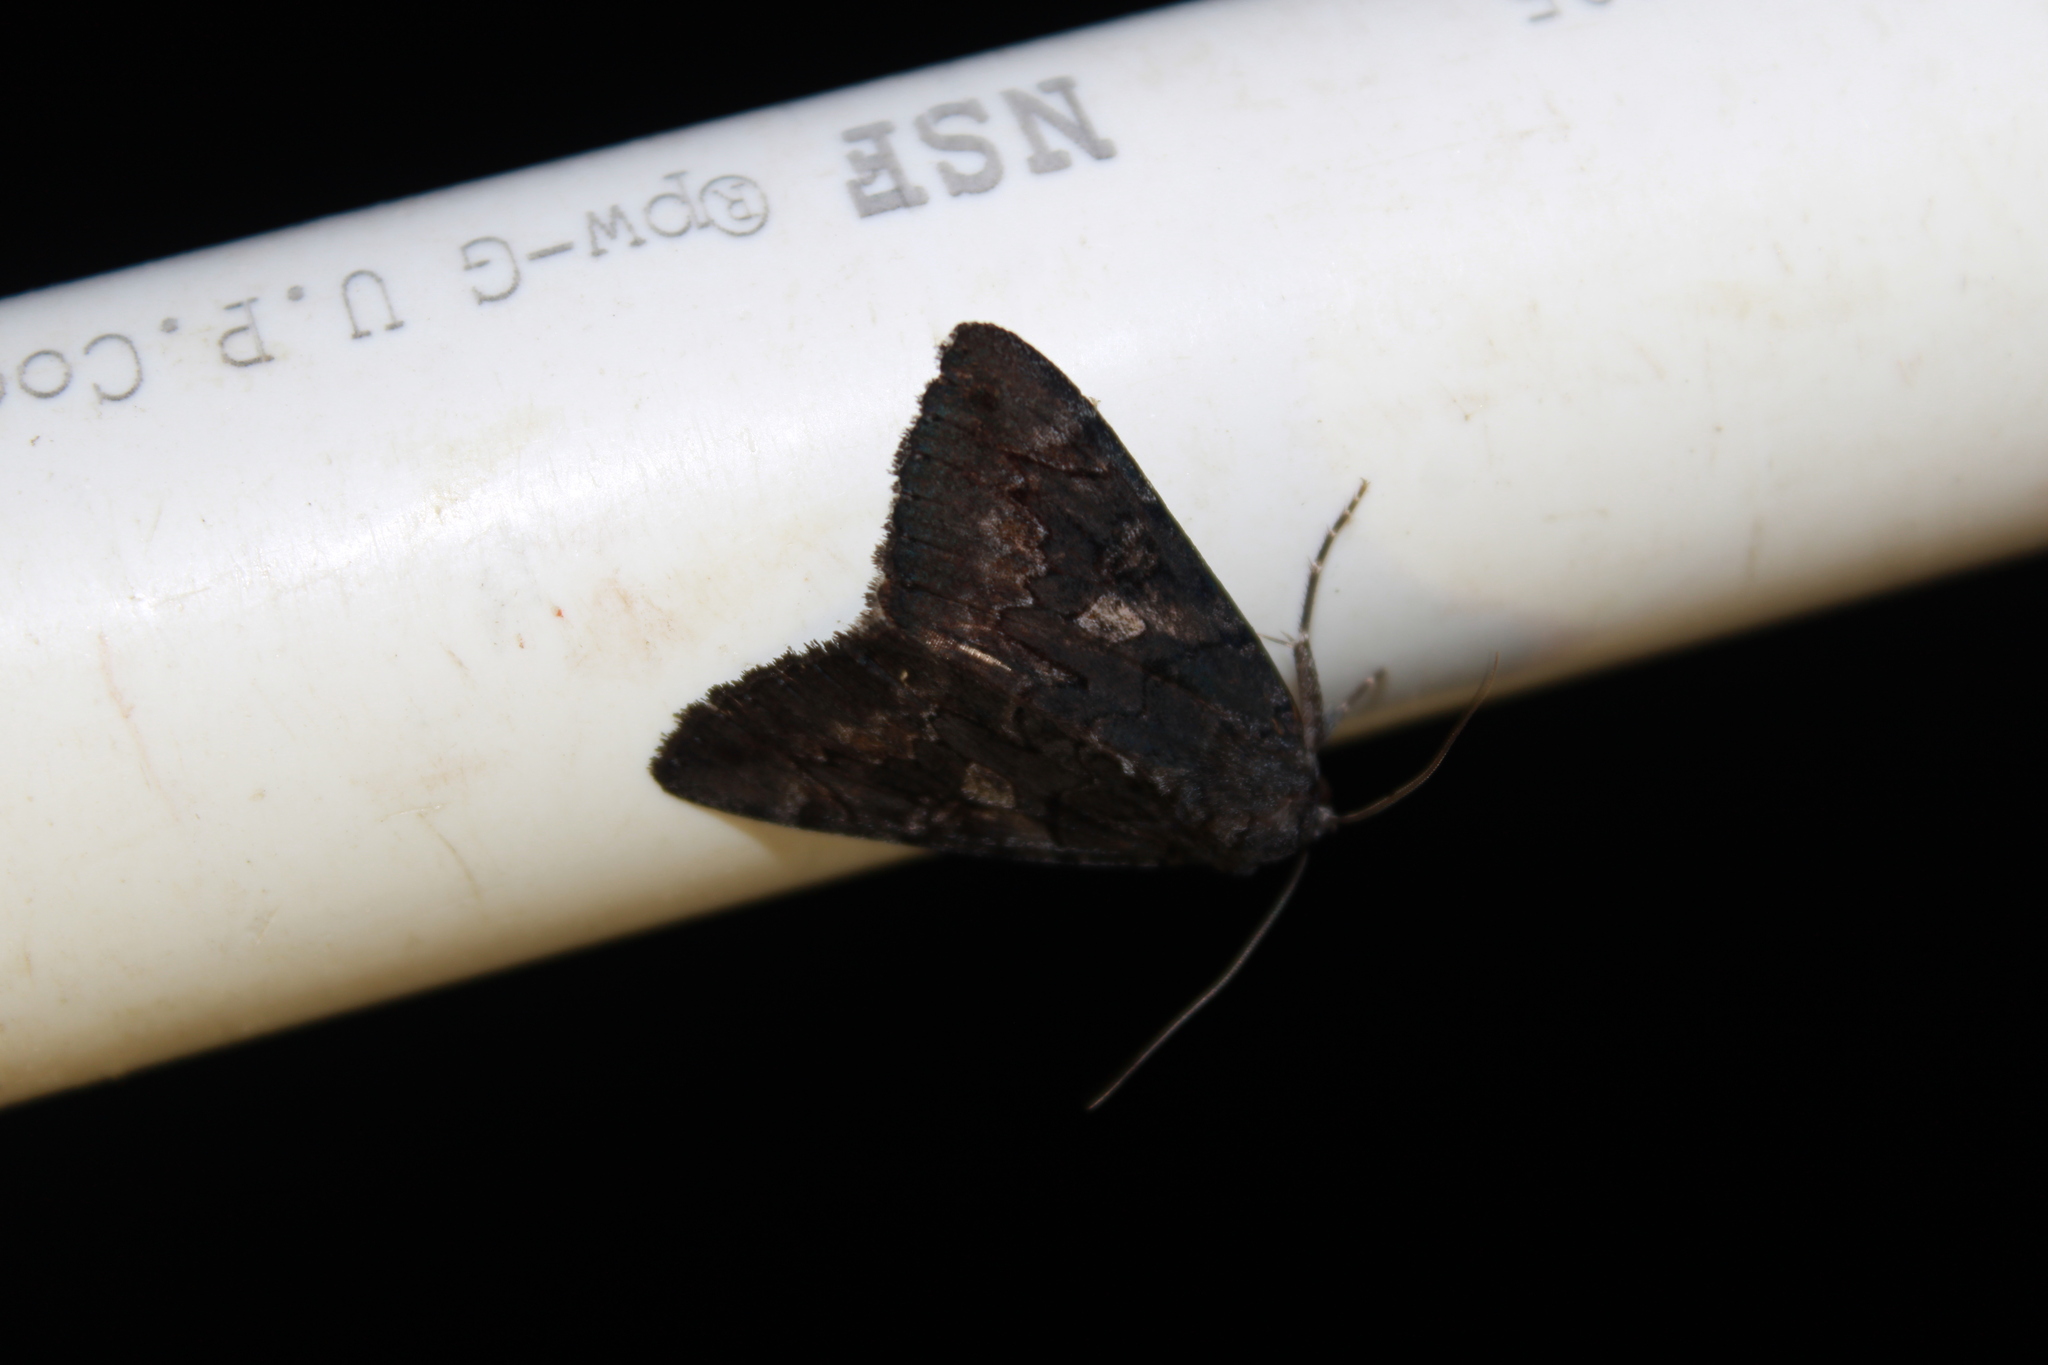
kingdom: Animalia
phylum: Arthropoda
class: Insecta
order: Lepidoptera
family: Erebidae
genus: Catocala
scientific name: Catocala antinympha
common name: Sweetfern underwing
